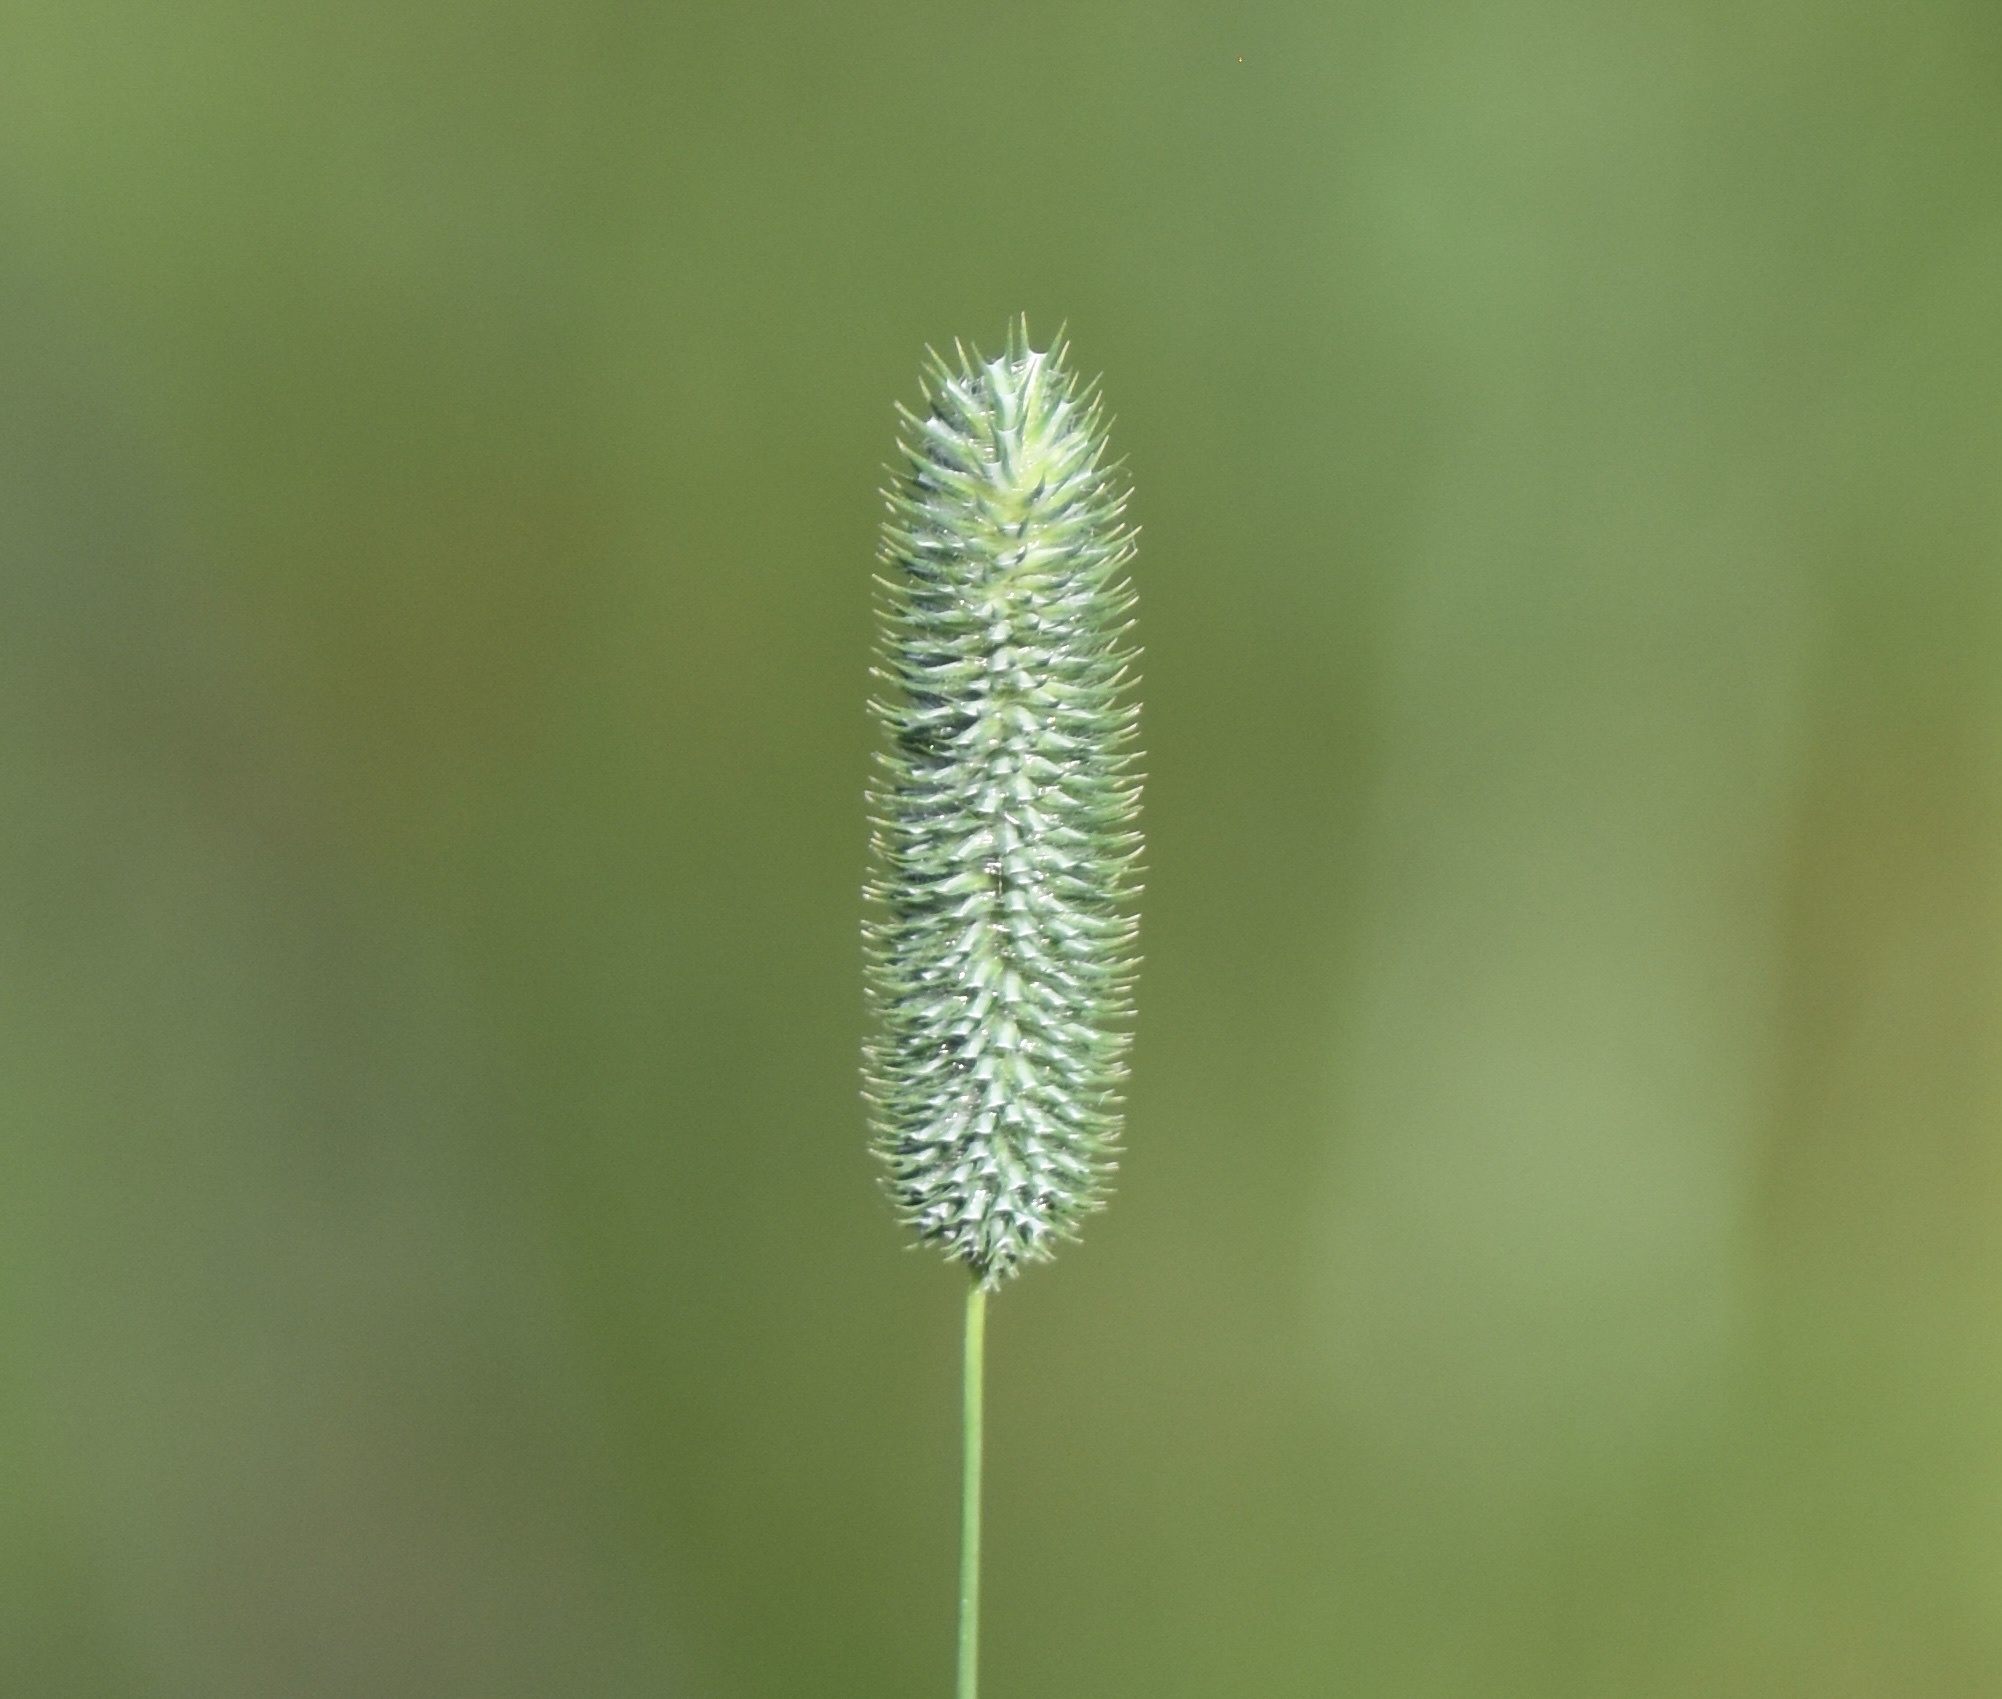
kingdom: Plantae
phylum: Tracheophyta
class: Liliopsida
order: Poales
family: Poaceae
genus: Phleum
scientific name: Phleum pratense
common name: Timothy grass
